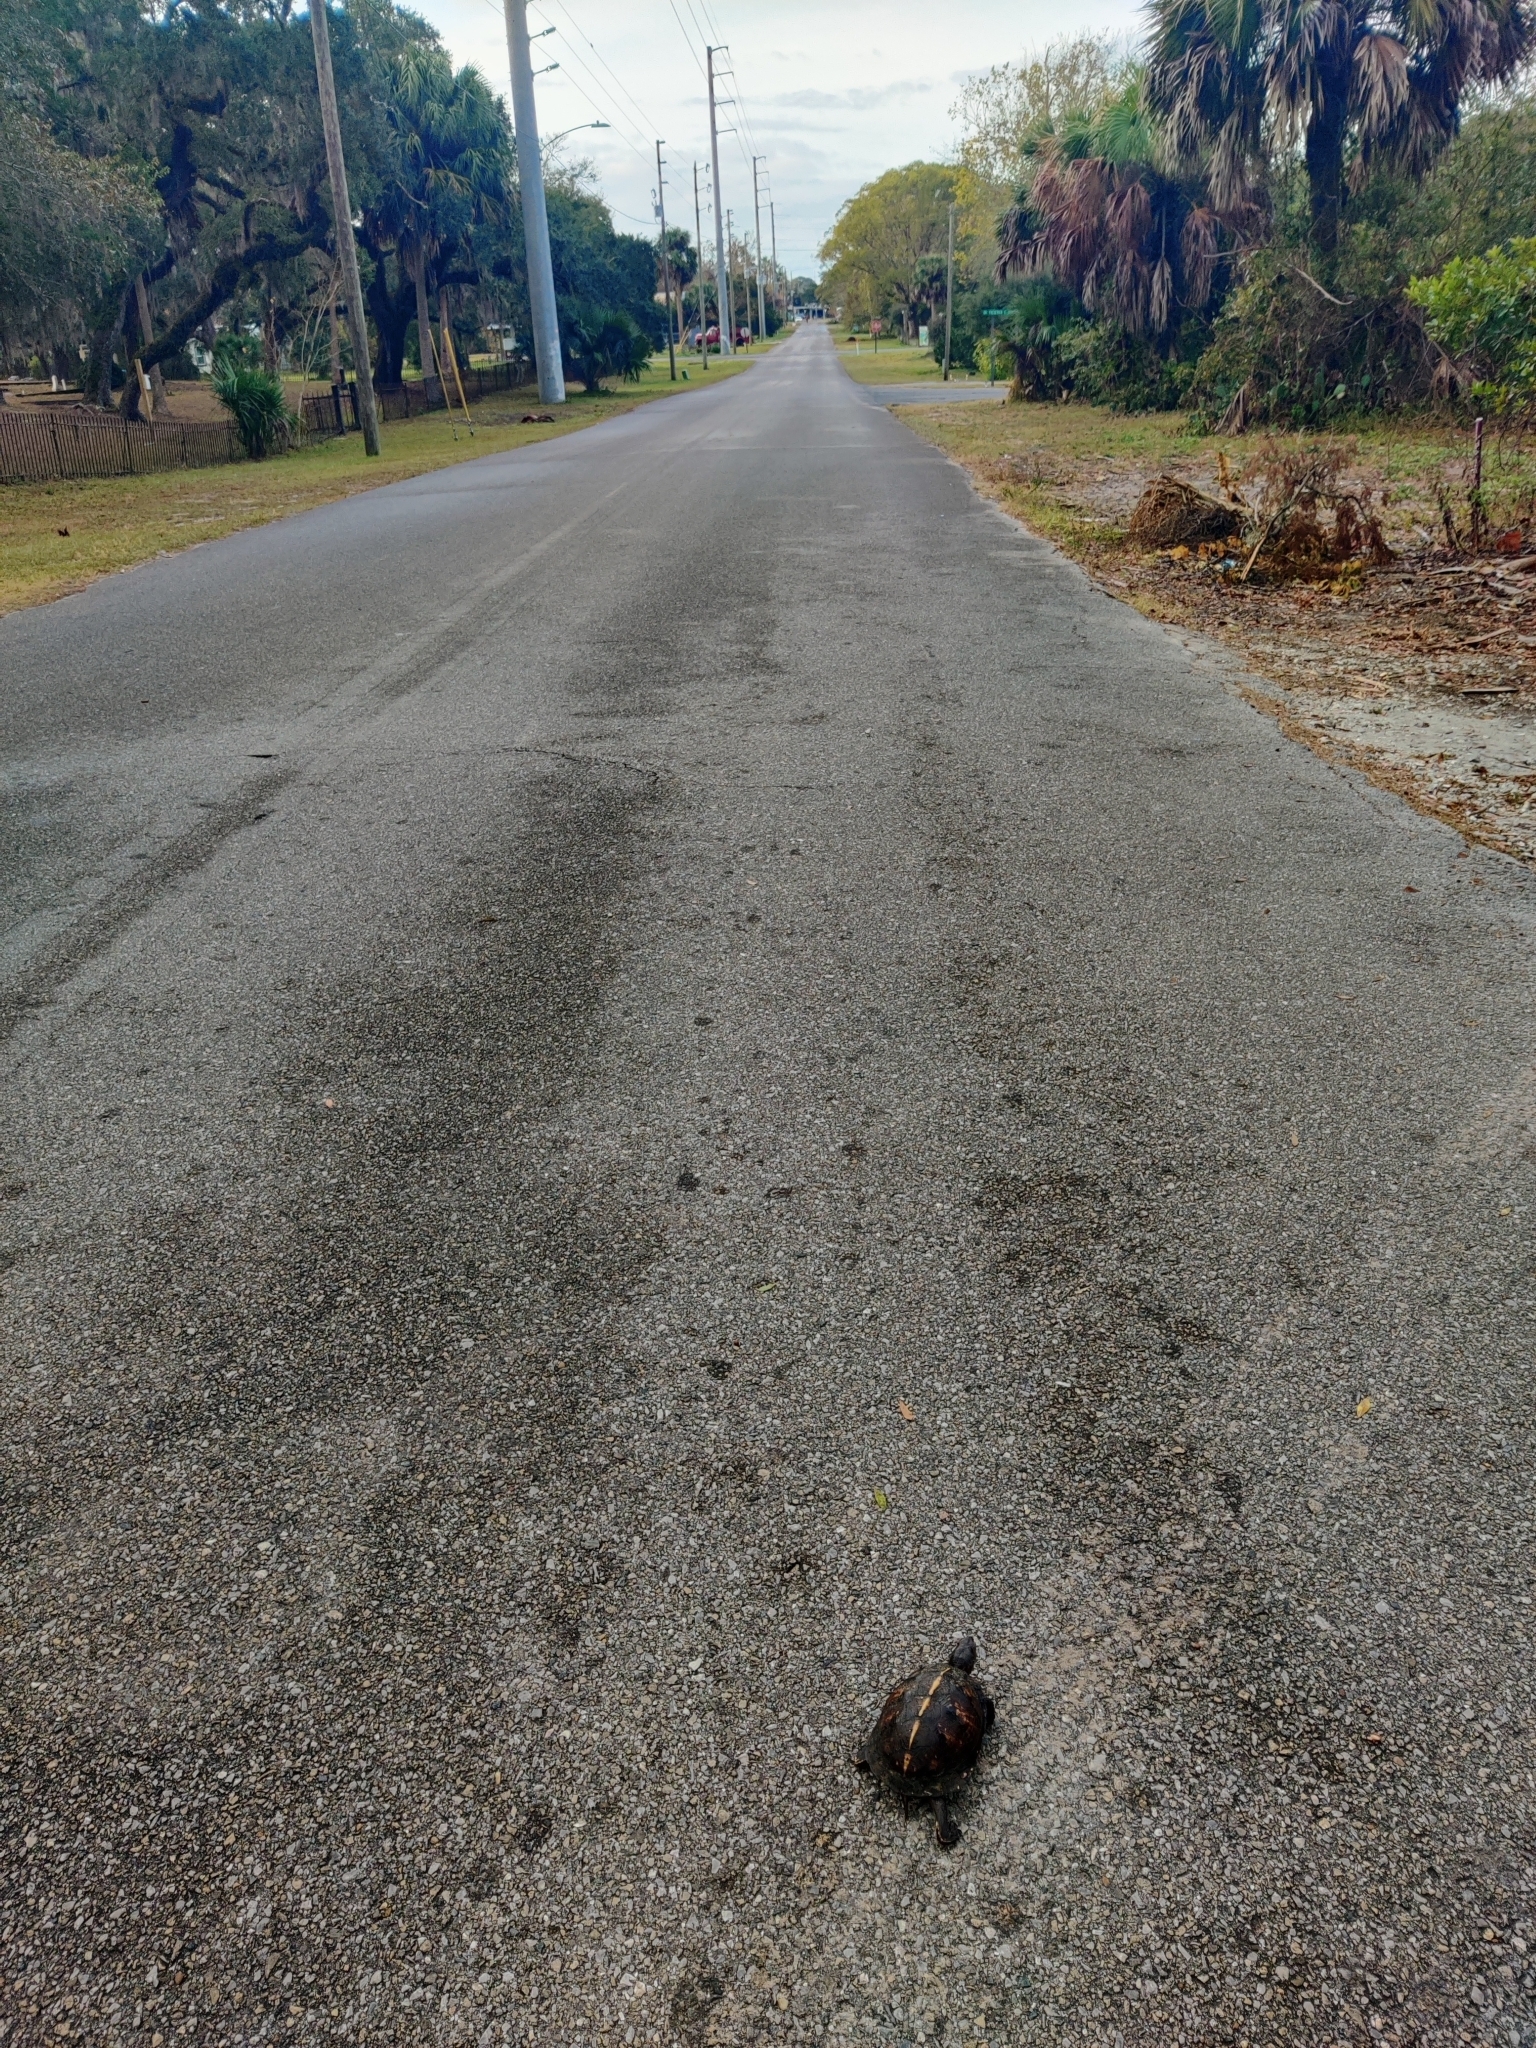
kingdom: Animalia
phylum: Chordata
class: Testudines
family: Emydidae
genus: Terrapene
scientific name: Terrapene carolina
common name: Common box turtle
